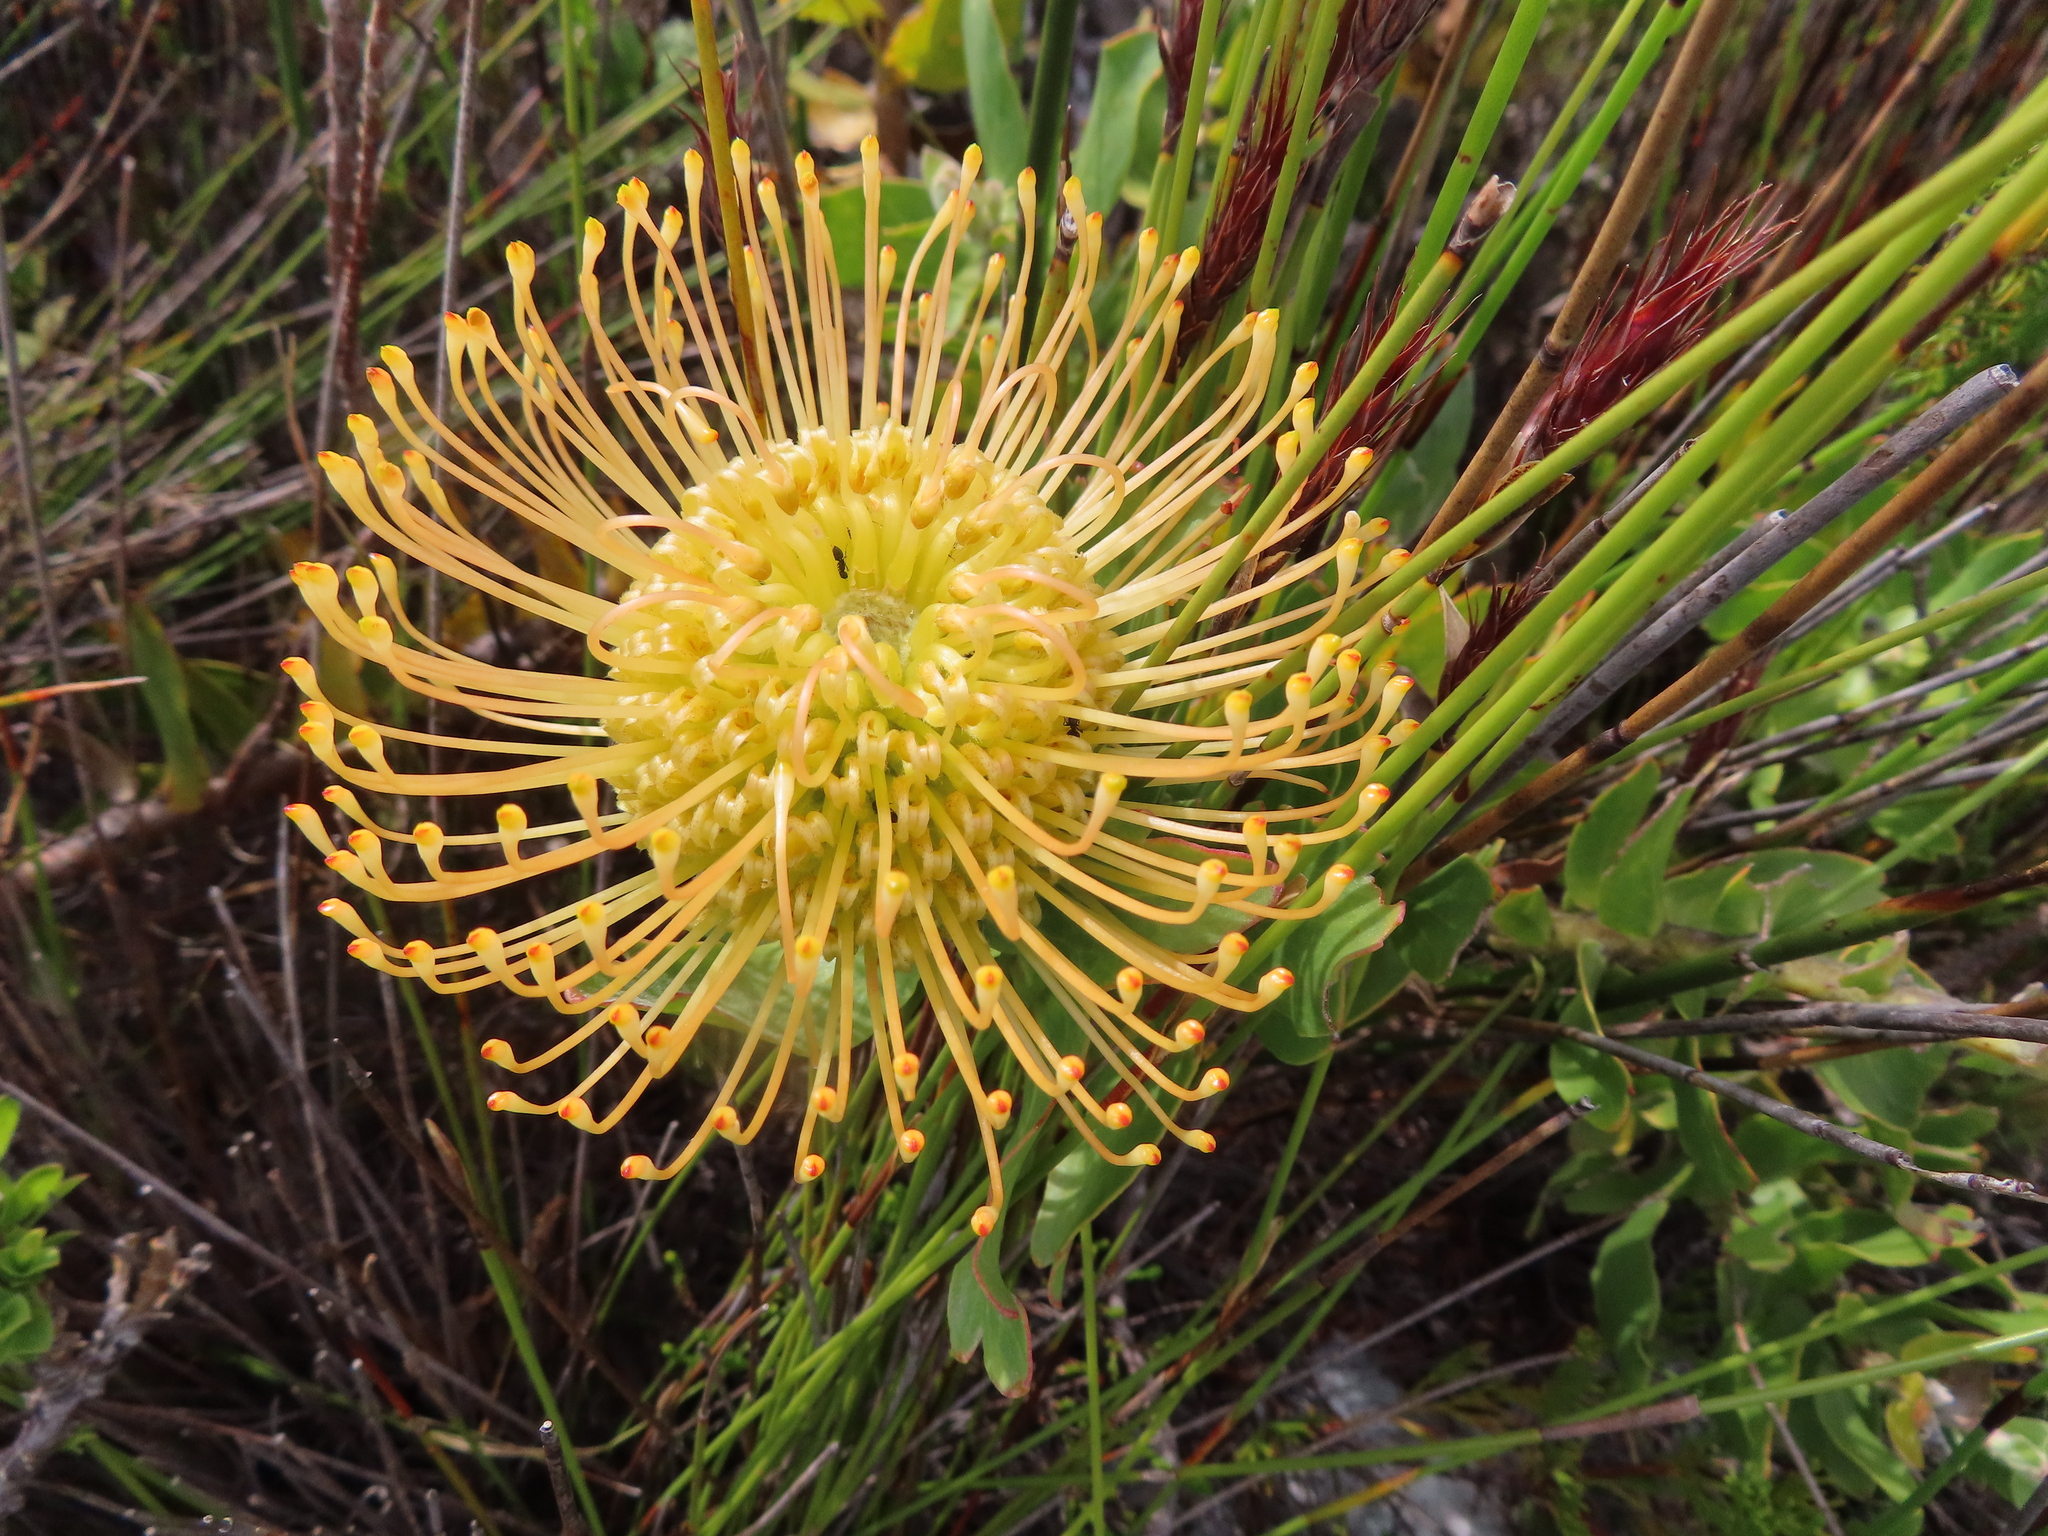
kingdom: Plantae
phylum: Tracheophyta
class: Magnoliopsida
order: Proteales
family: Proteaceae
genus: Leucospermum
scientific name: Leucospermum cordifolium
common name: Red pincushion-protea
